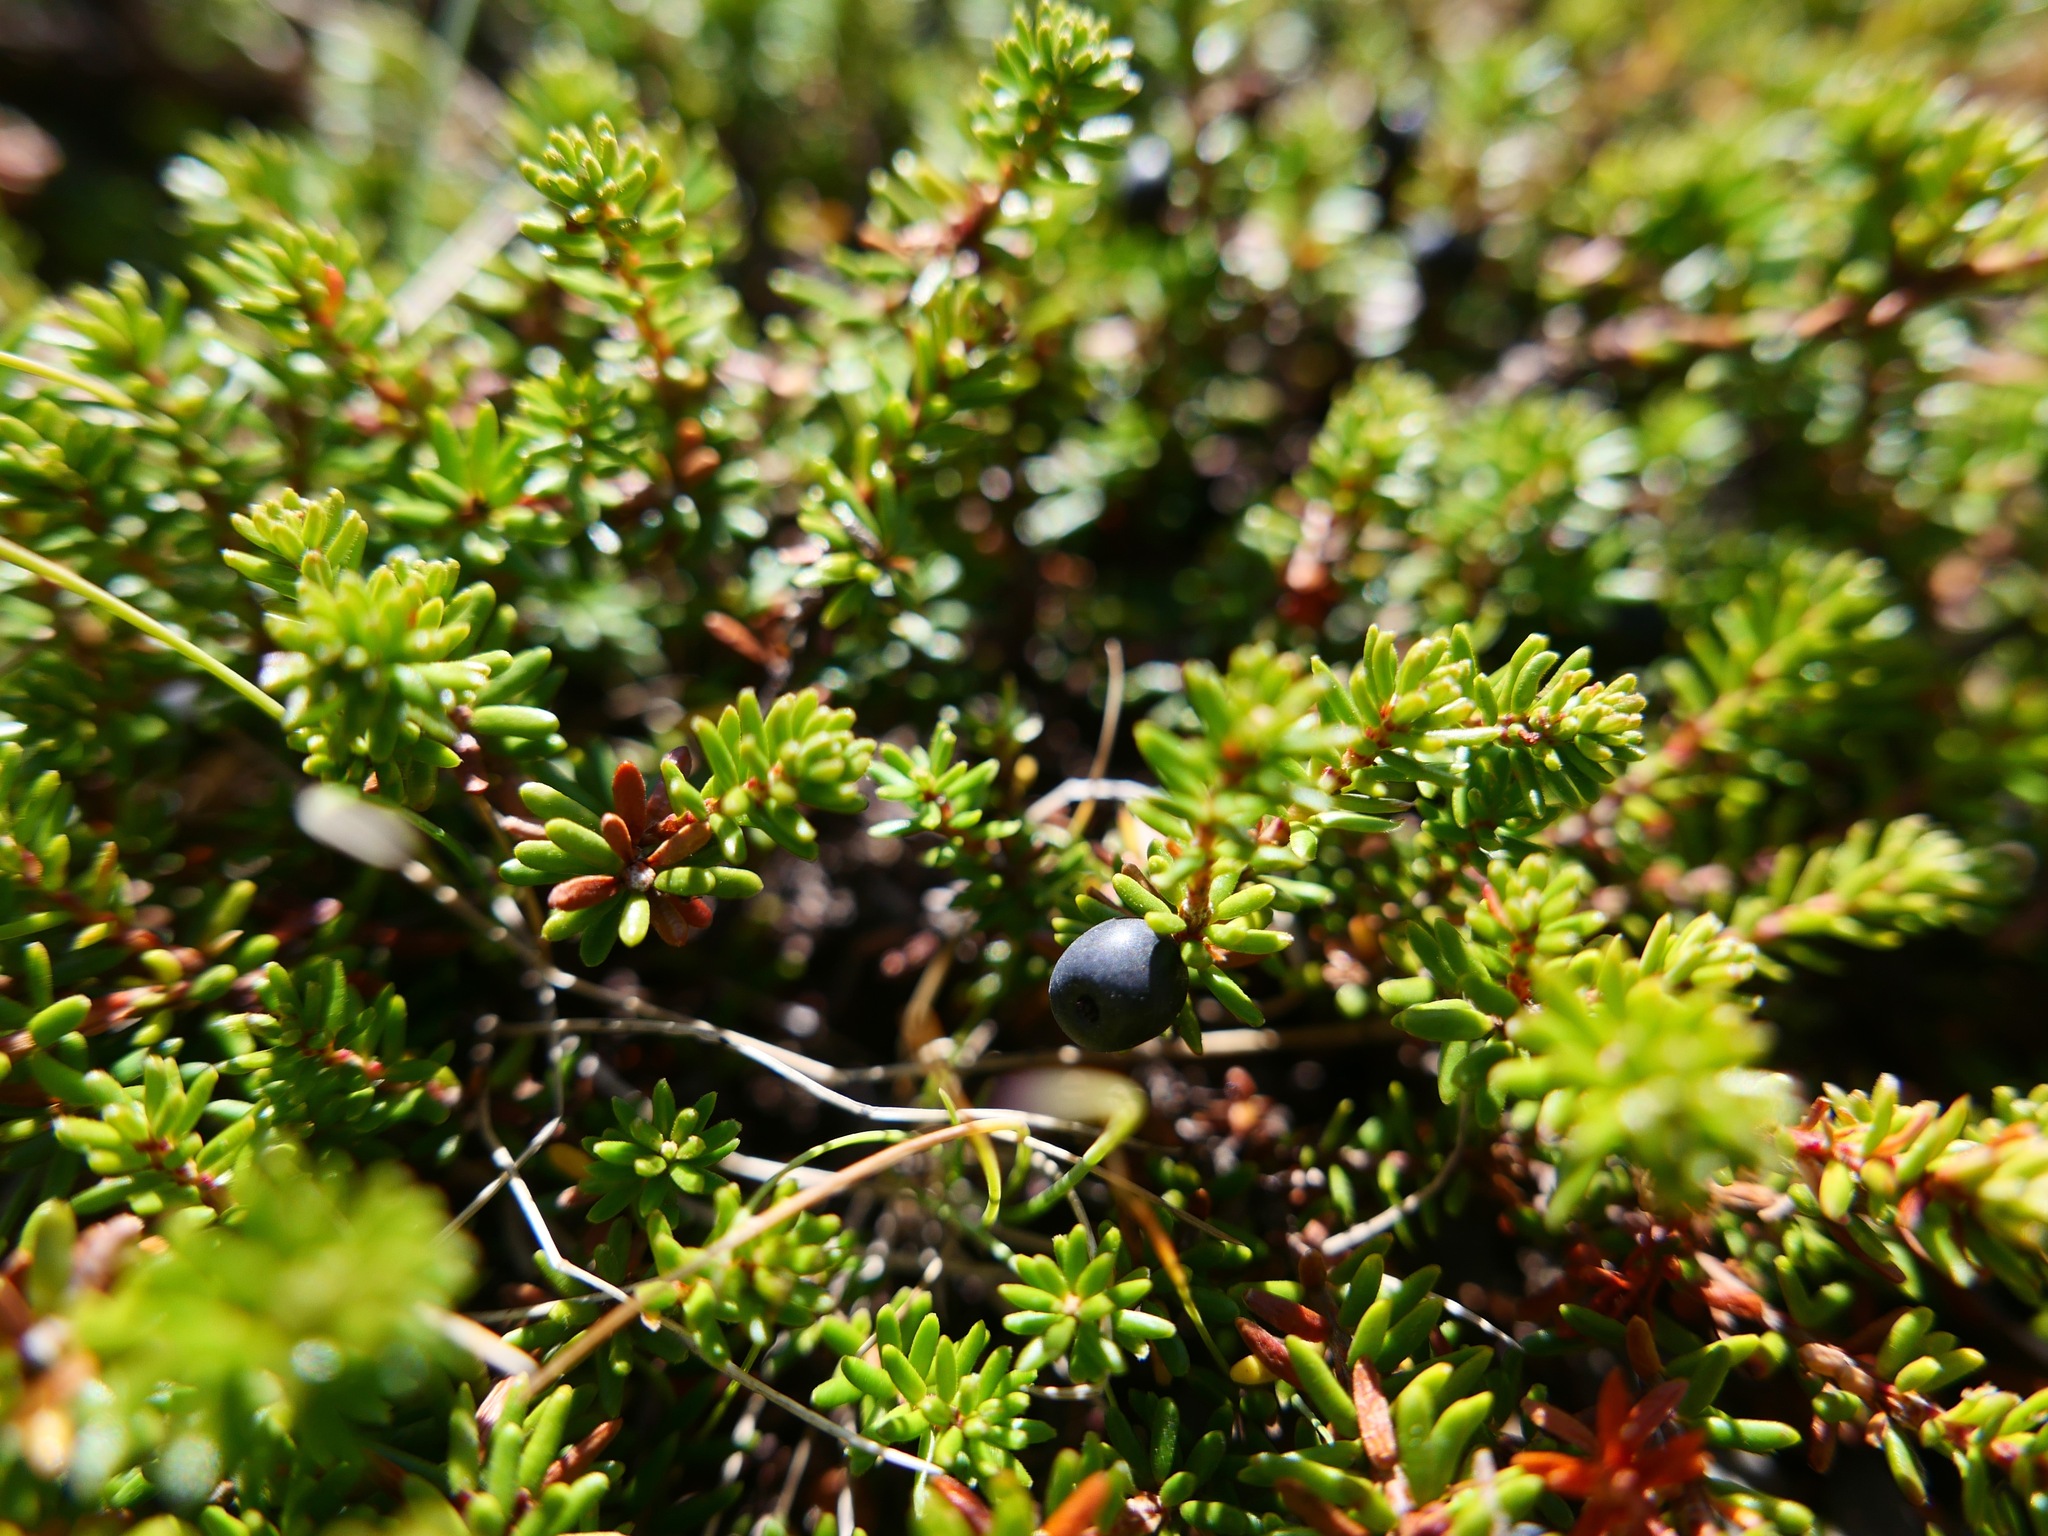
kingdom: Plantae
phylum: Tracheophyta
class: Magnoliopsida
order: Ericales
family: Ericaceae
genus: Empetrum
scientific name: Empetrum nigrum
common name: Black crowberry
